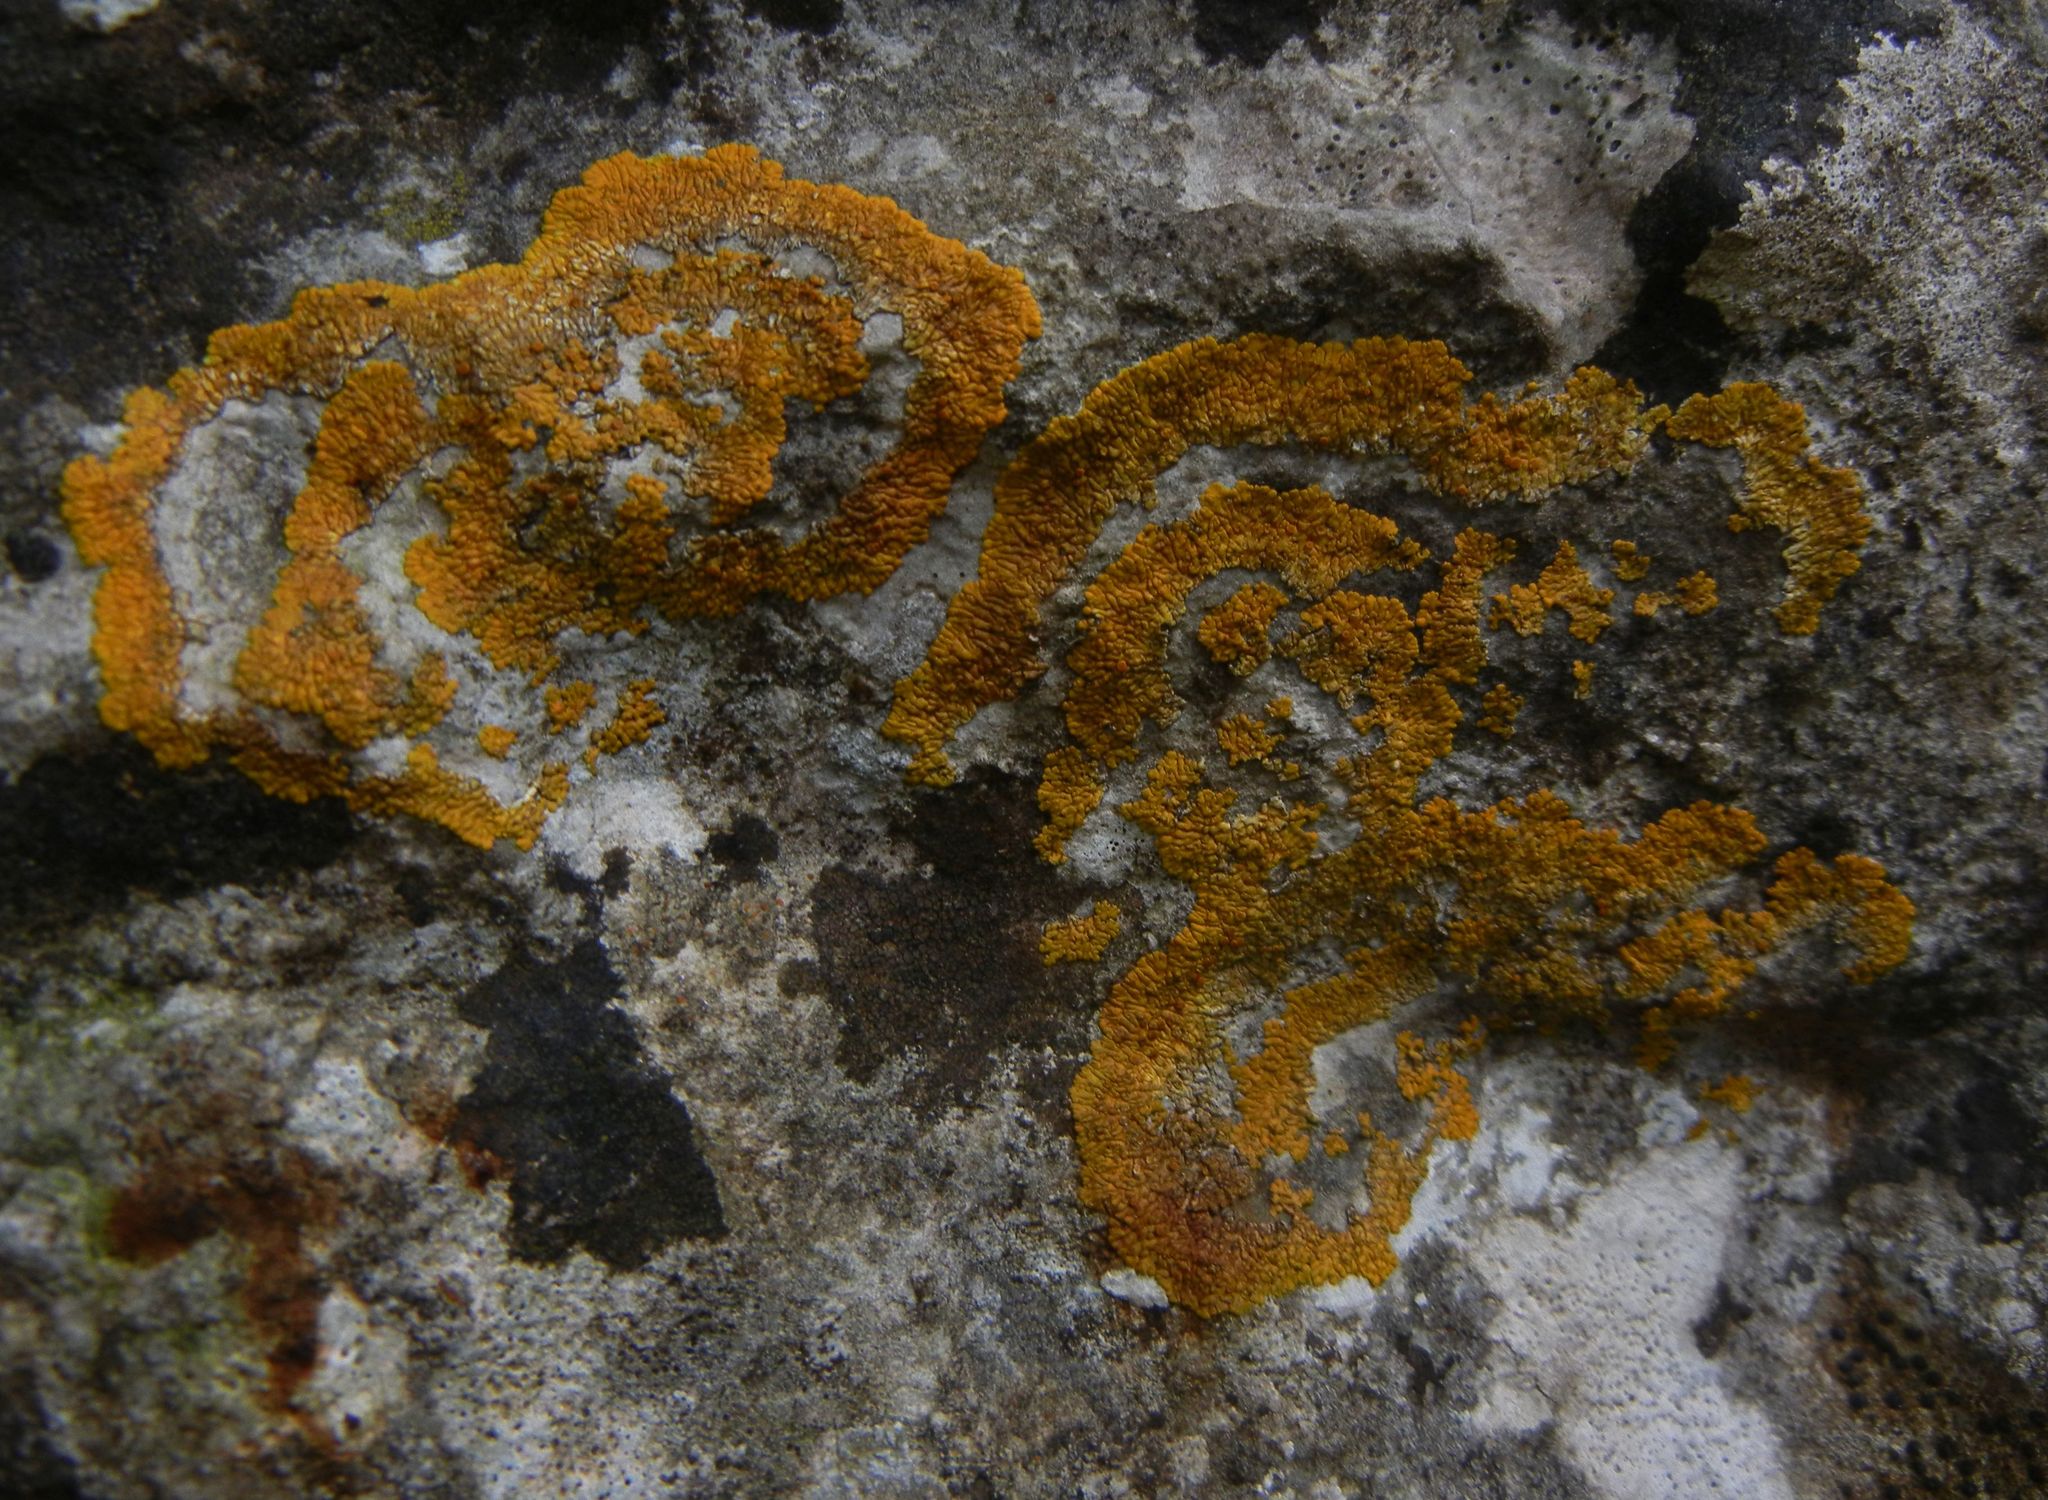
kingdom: Fungi
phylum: Ascomycota
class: Lecanoromycetes
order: Teloschistales
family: Teloschistaceae
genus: Variospora
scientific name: Variospora flavescens
